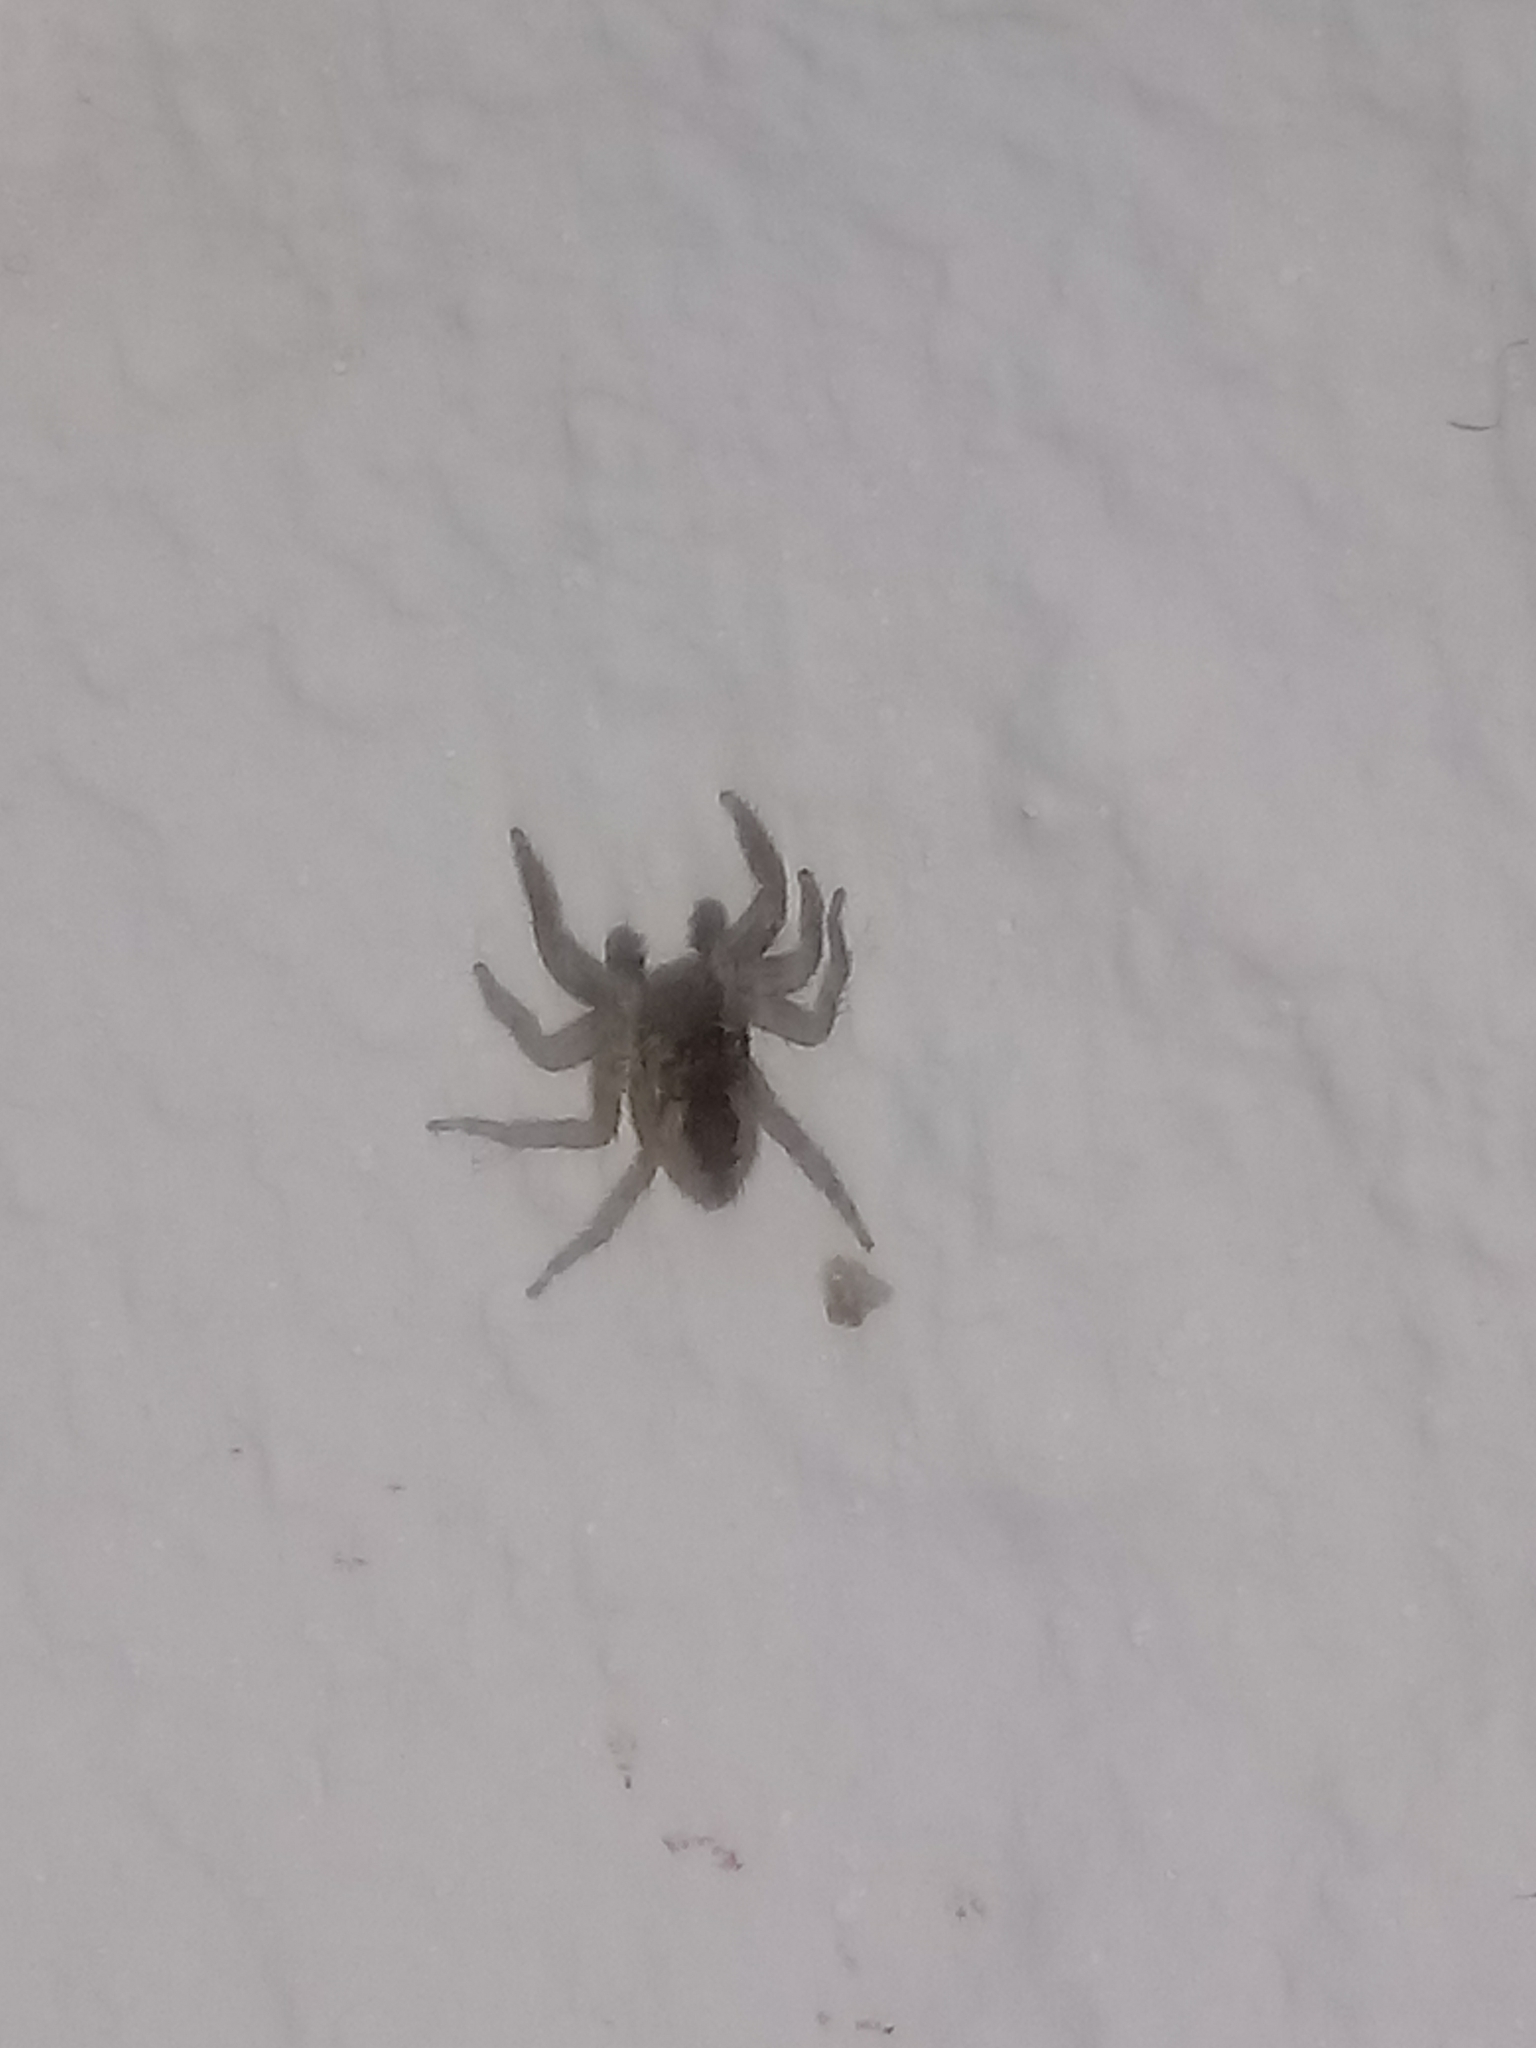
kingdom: Animalia
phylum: Arthropoda
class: Arachnida
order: Araneae
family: Salticidae
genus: Mexigonus
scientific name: Mexigonus minutus
